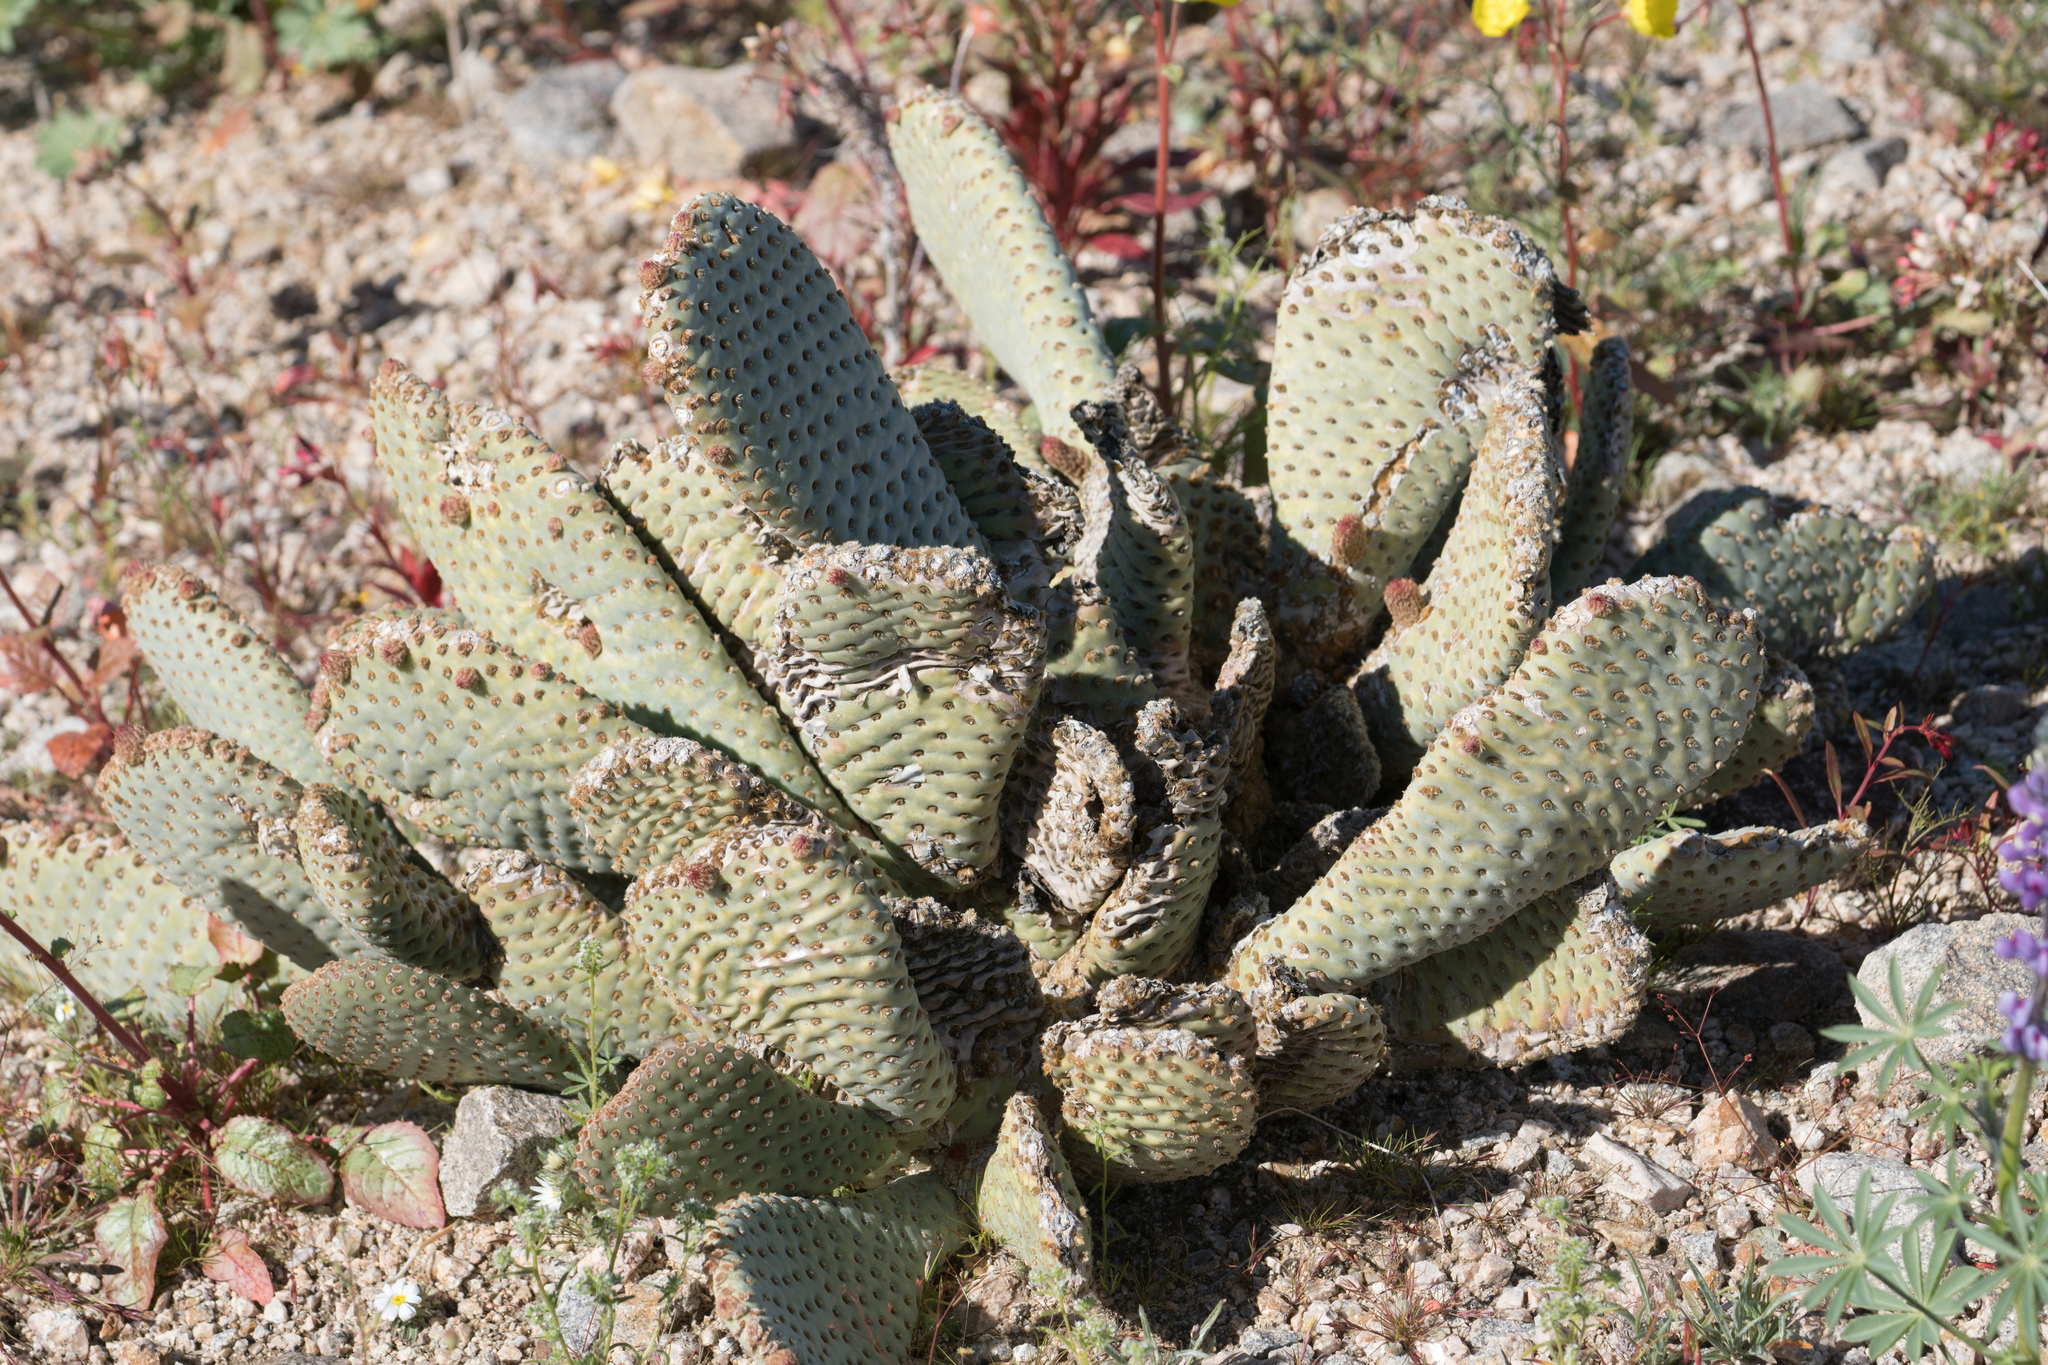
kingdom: Plantae
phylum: Tracheophyta
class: Magnoliopsida
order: Caryophyllales
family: Cactaceae
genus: Opuntia
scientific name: Opuntia basilaris
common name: Beavertail prickly-pear
